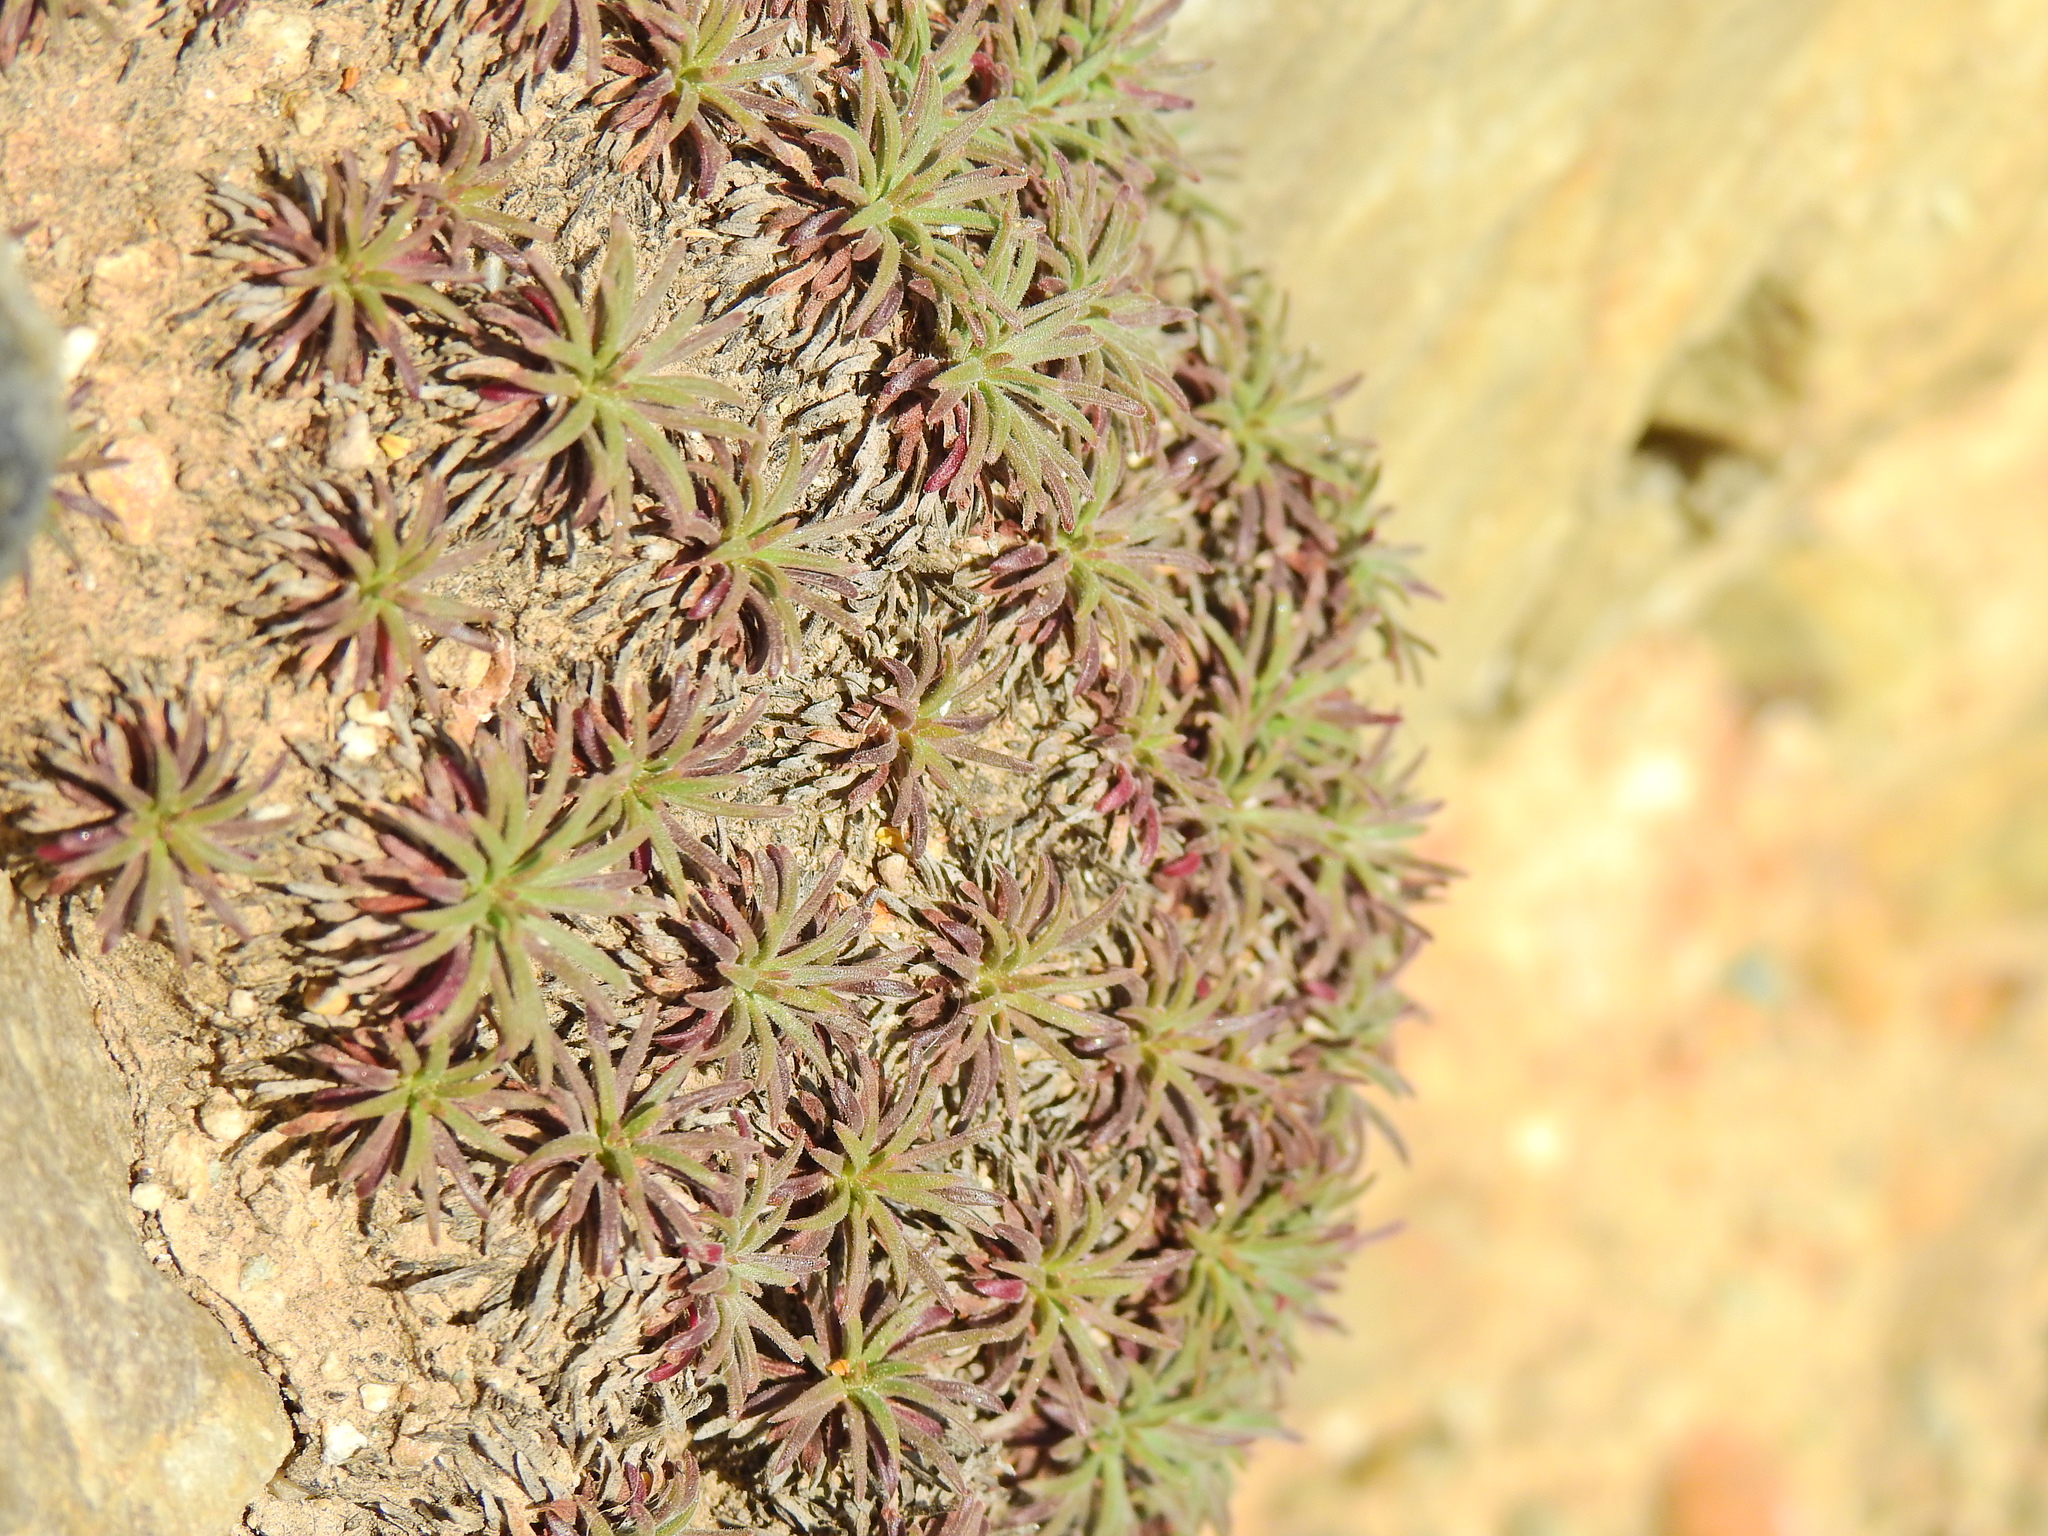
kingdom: Plantae
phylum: Tracheophyta
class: Magnoliopsida
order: Caryophyllales
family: Plumbaginaceae
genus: Armeria
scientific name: Armeria maritima
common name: Thrift
